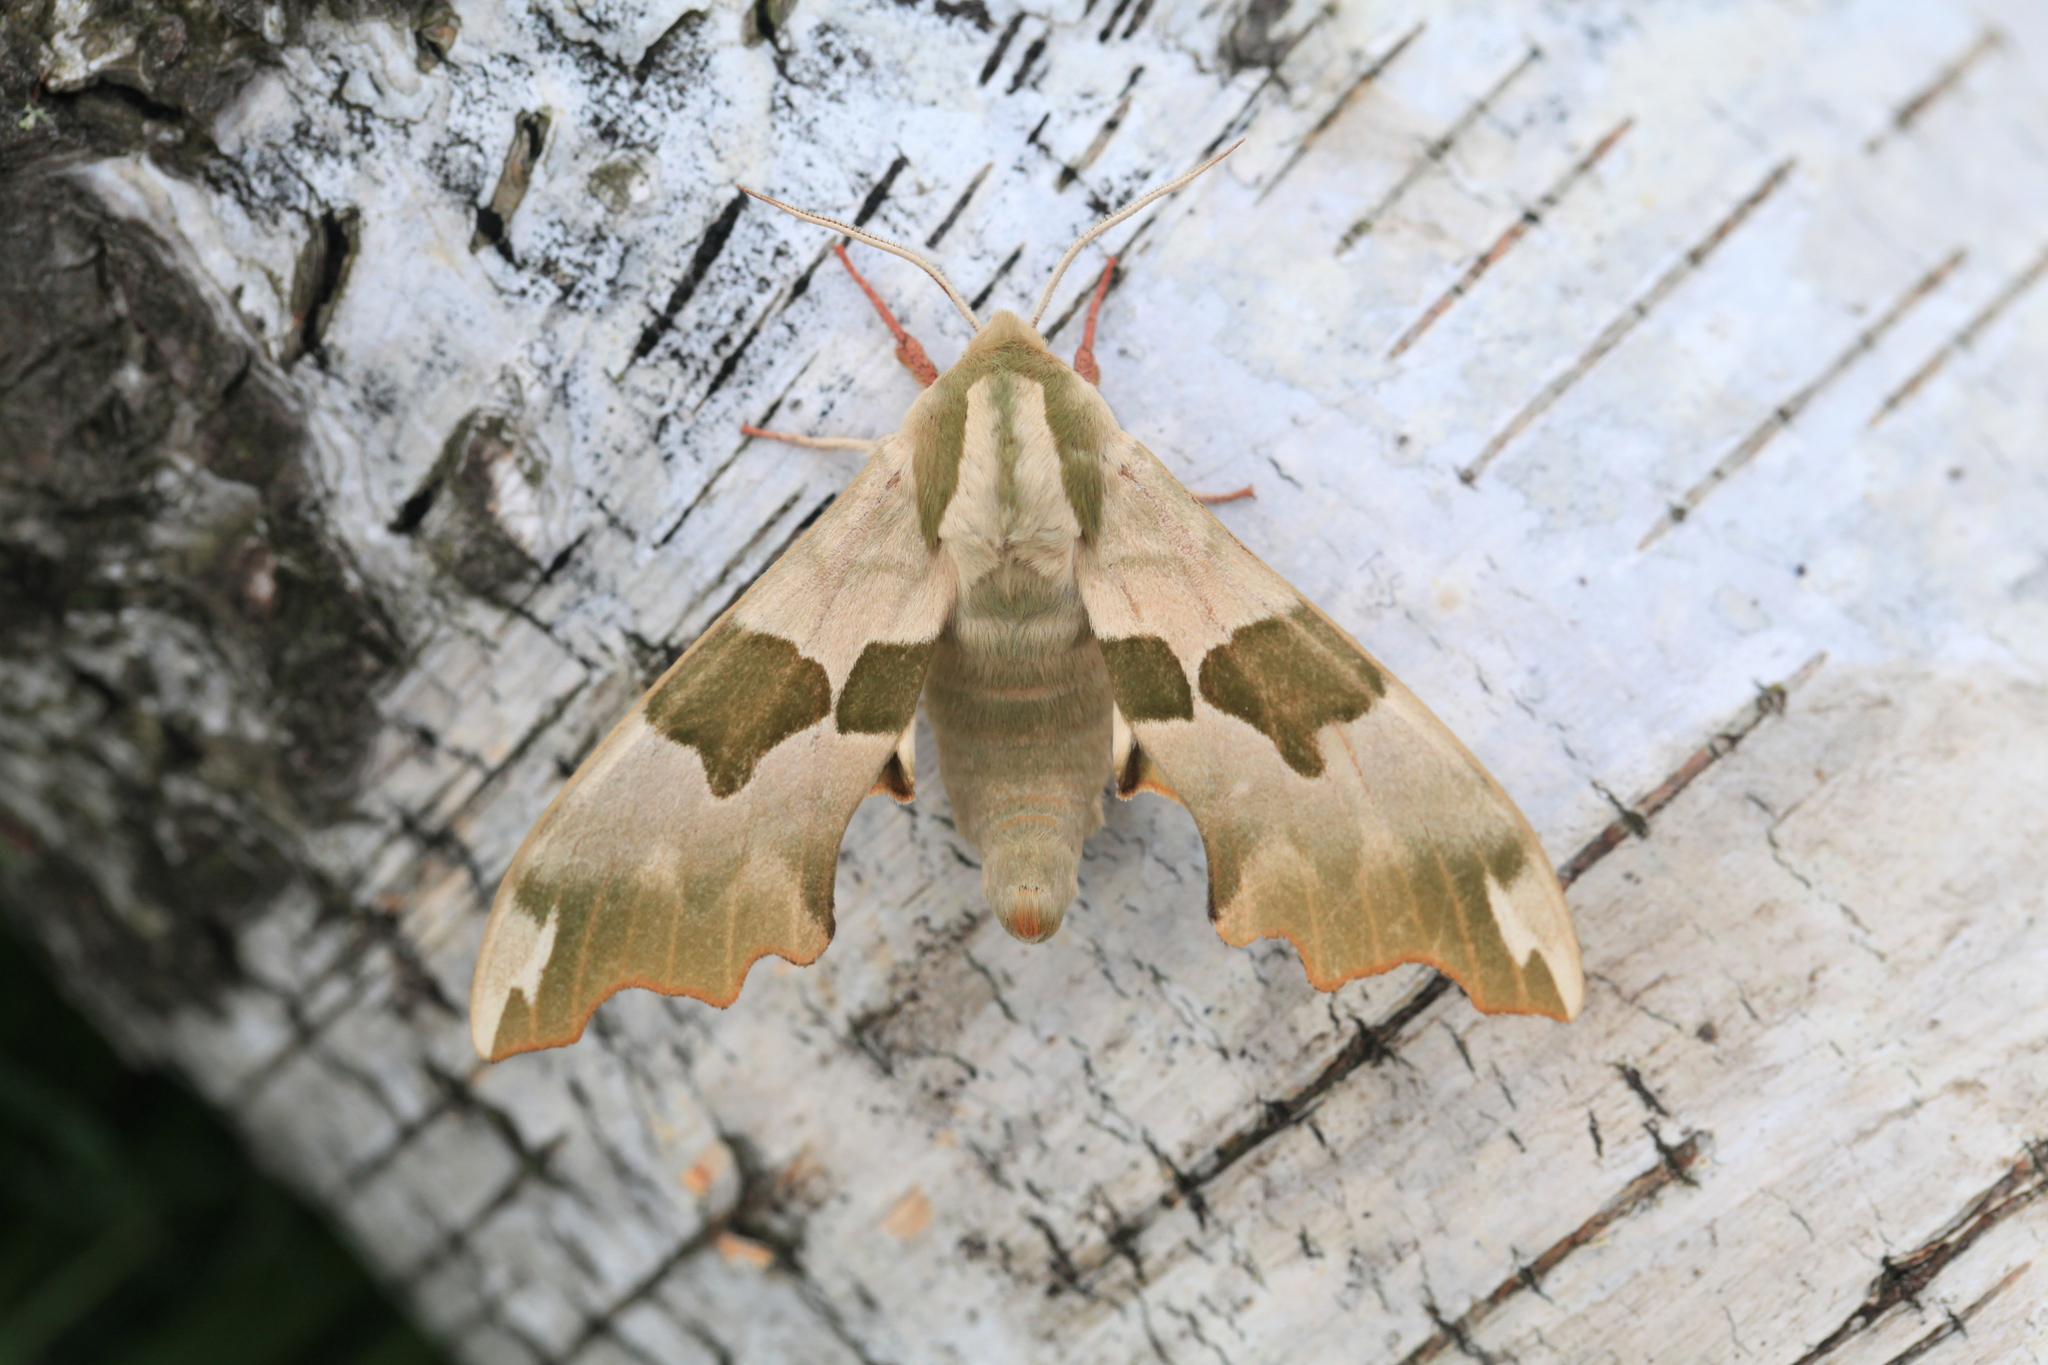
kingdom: Animalia
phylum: Arthropoda
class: Insecta
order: Lepidoptera
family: Sphingidae
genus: Mimas
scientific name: Mimas tiliae
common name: Lime hawk-moth
